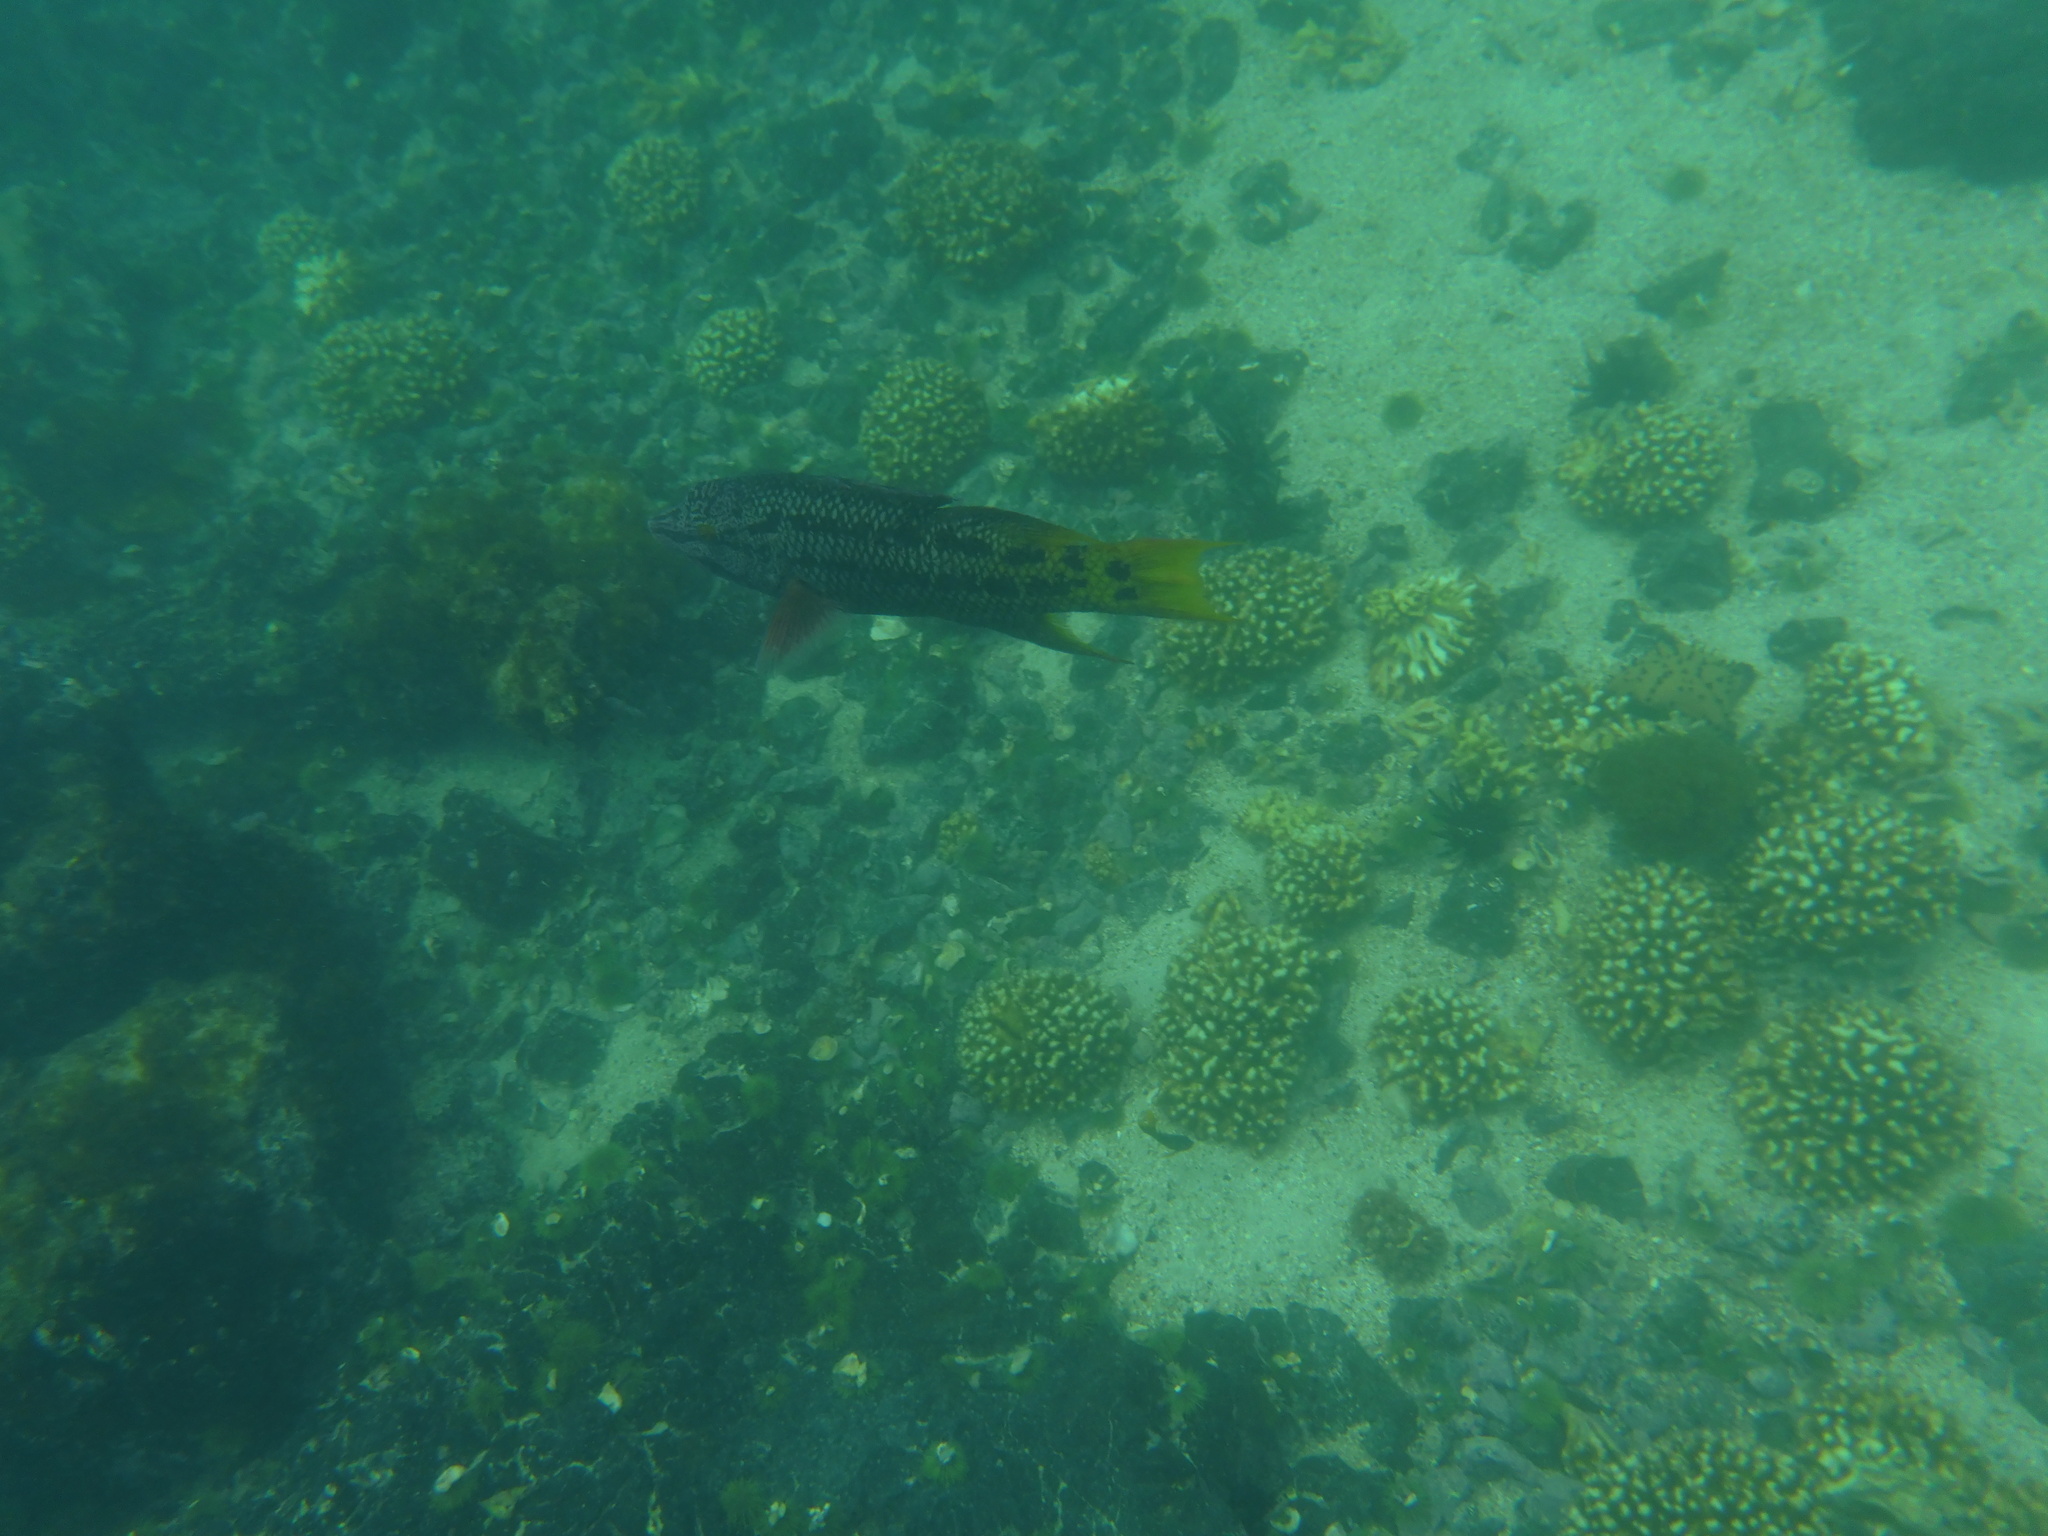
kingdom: Animalia
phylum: Chordata
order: Perciformes
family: Labridae
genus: Bodianus
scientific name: Bodianus diplotaenia
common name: Mexican hogfish
